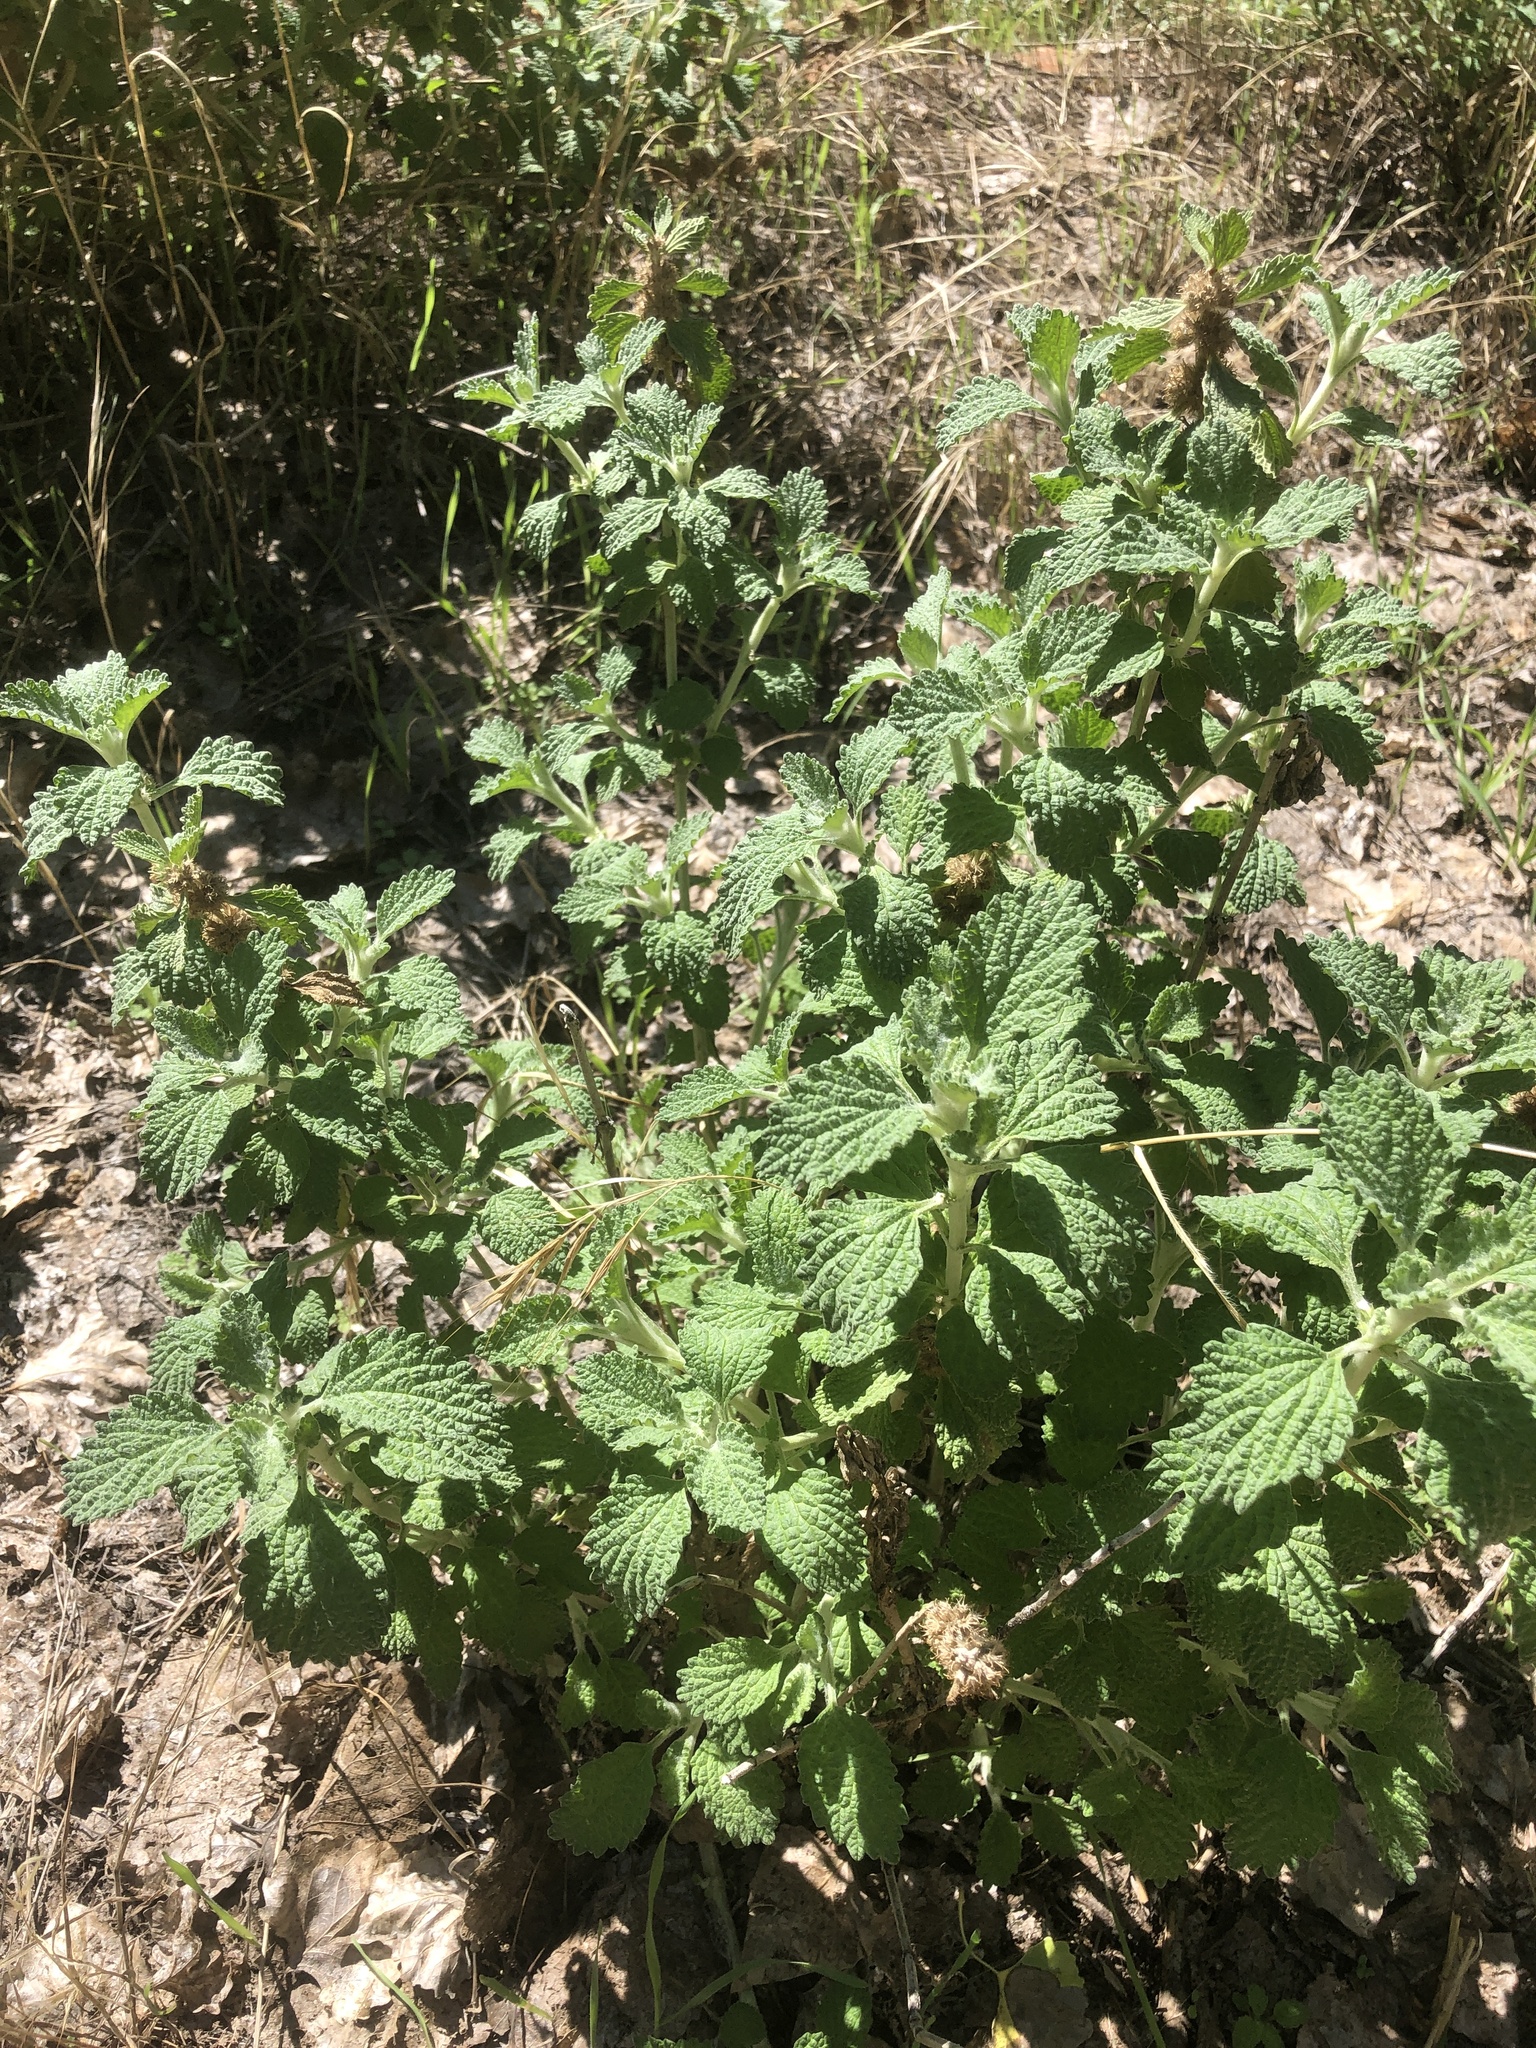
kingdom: Plantae
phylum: Tracheophyta
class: Magnoliopsida
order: Lamiales
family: Lamiaceae
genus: Marrubium
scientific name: Marrubium vulgare
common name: Horehound
